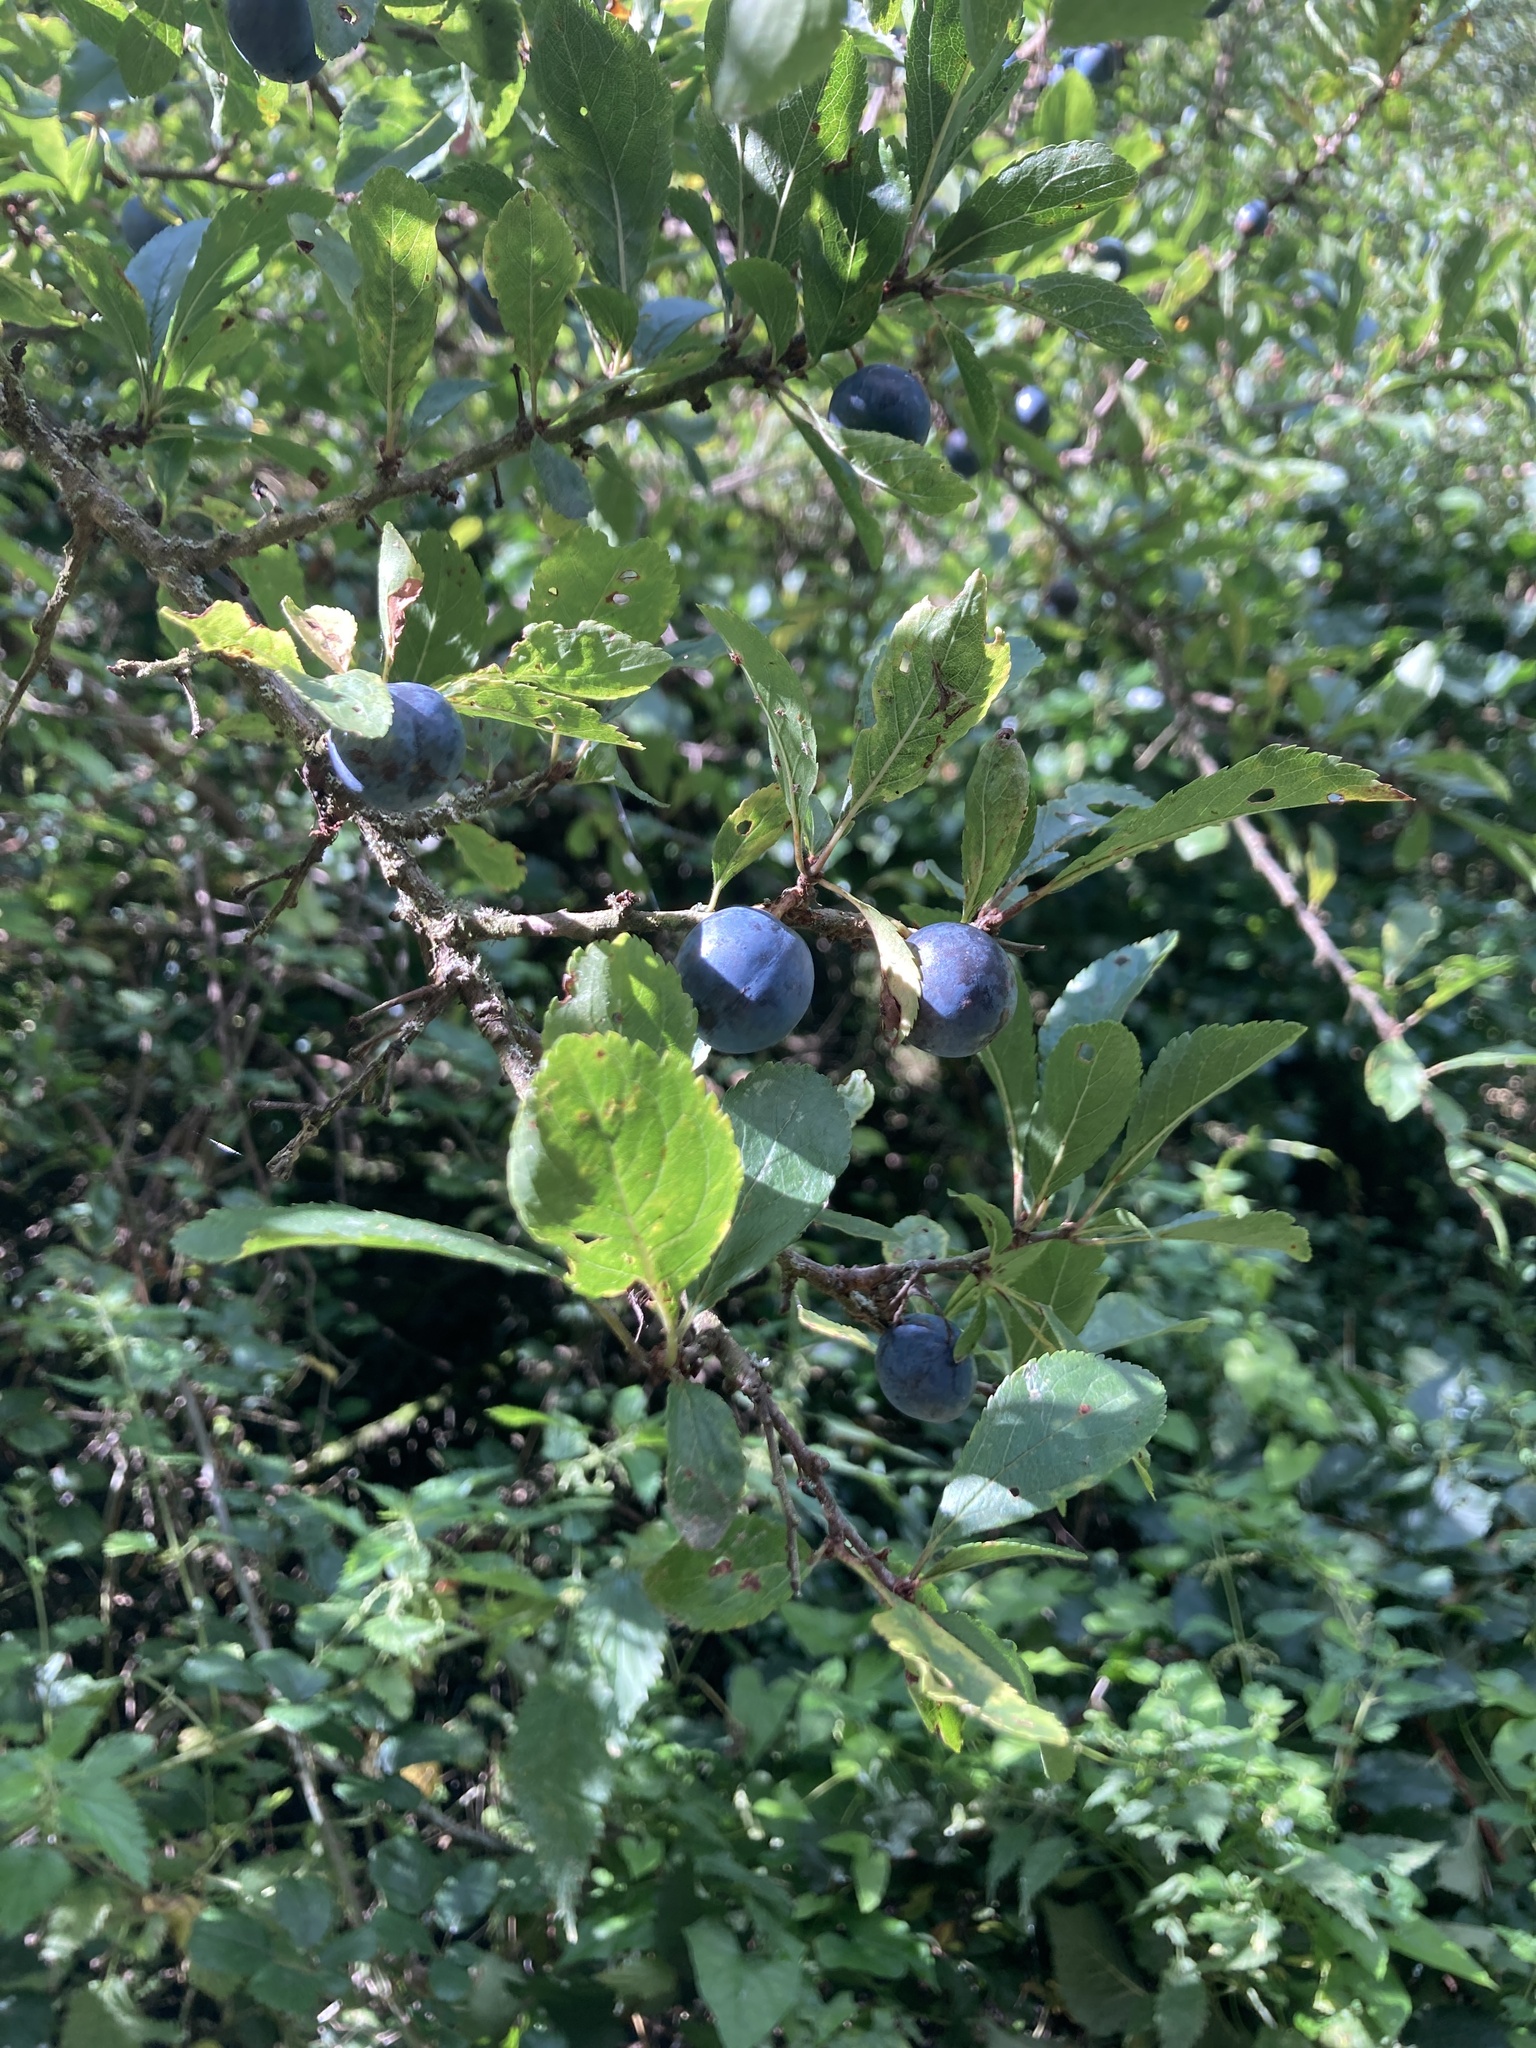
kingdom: Plantae
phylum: Tracheophyta
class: Magnoliopsida
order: Rosales
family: Rosaceae
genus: Prunus
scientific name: Prunus spinosa
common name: Blackthorn
